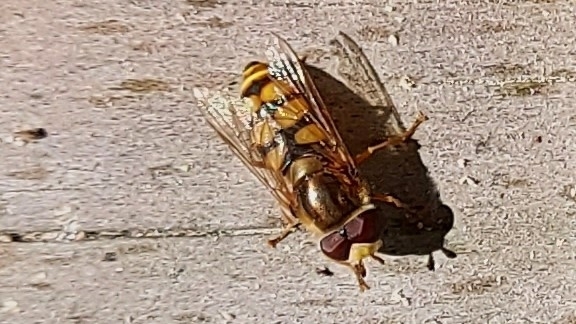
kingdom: Animalia
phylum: Arthropoda
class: Insecta
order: Diptera
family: Syrphidae
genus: Eupeodes
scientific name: Eupeodes corollae
